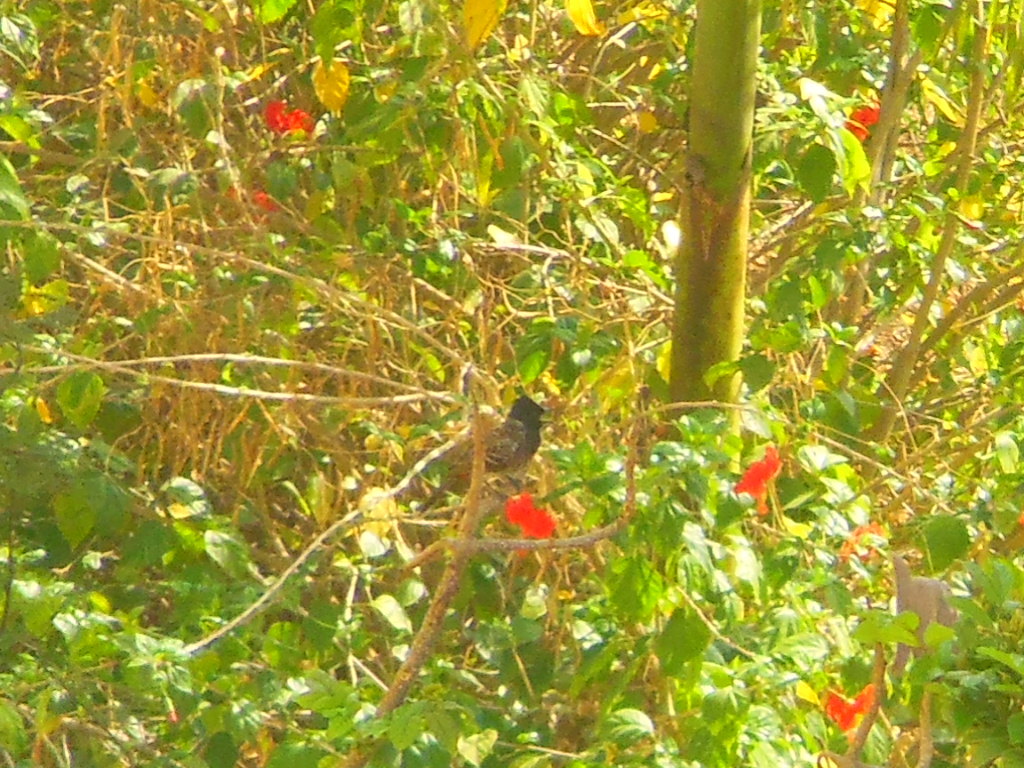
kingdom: Animalia
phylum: Chordata
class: Aves
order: Passeriformes
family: Pycnonotidae
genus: Pycnonotus
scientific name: Pycnonotus cafer
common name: Red-vented bulbul
